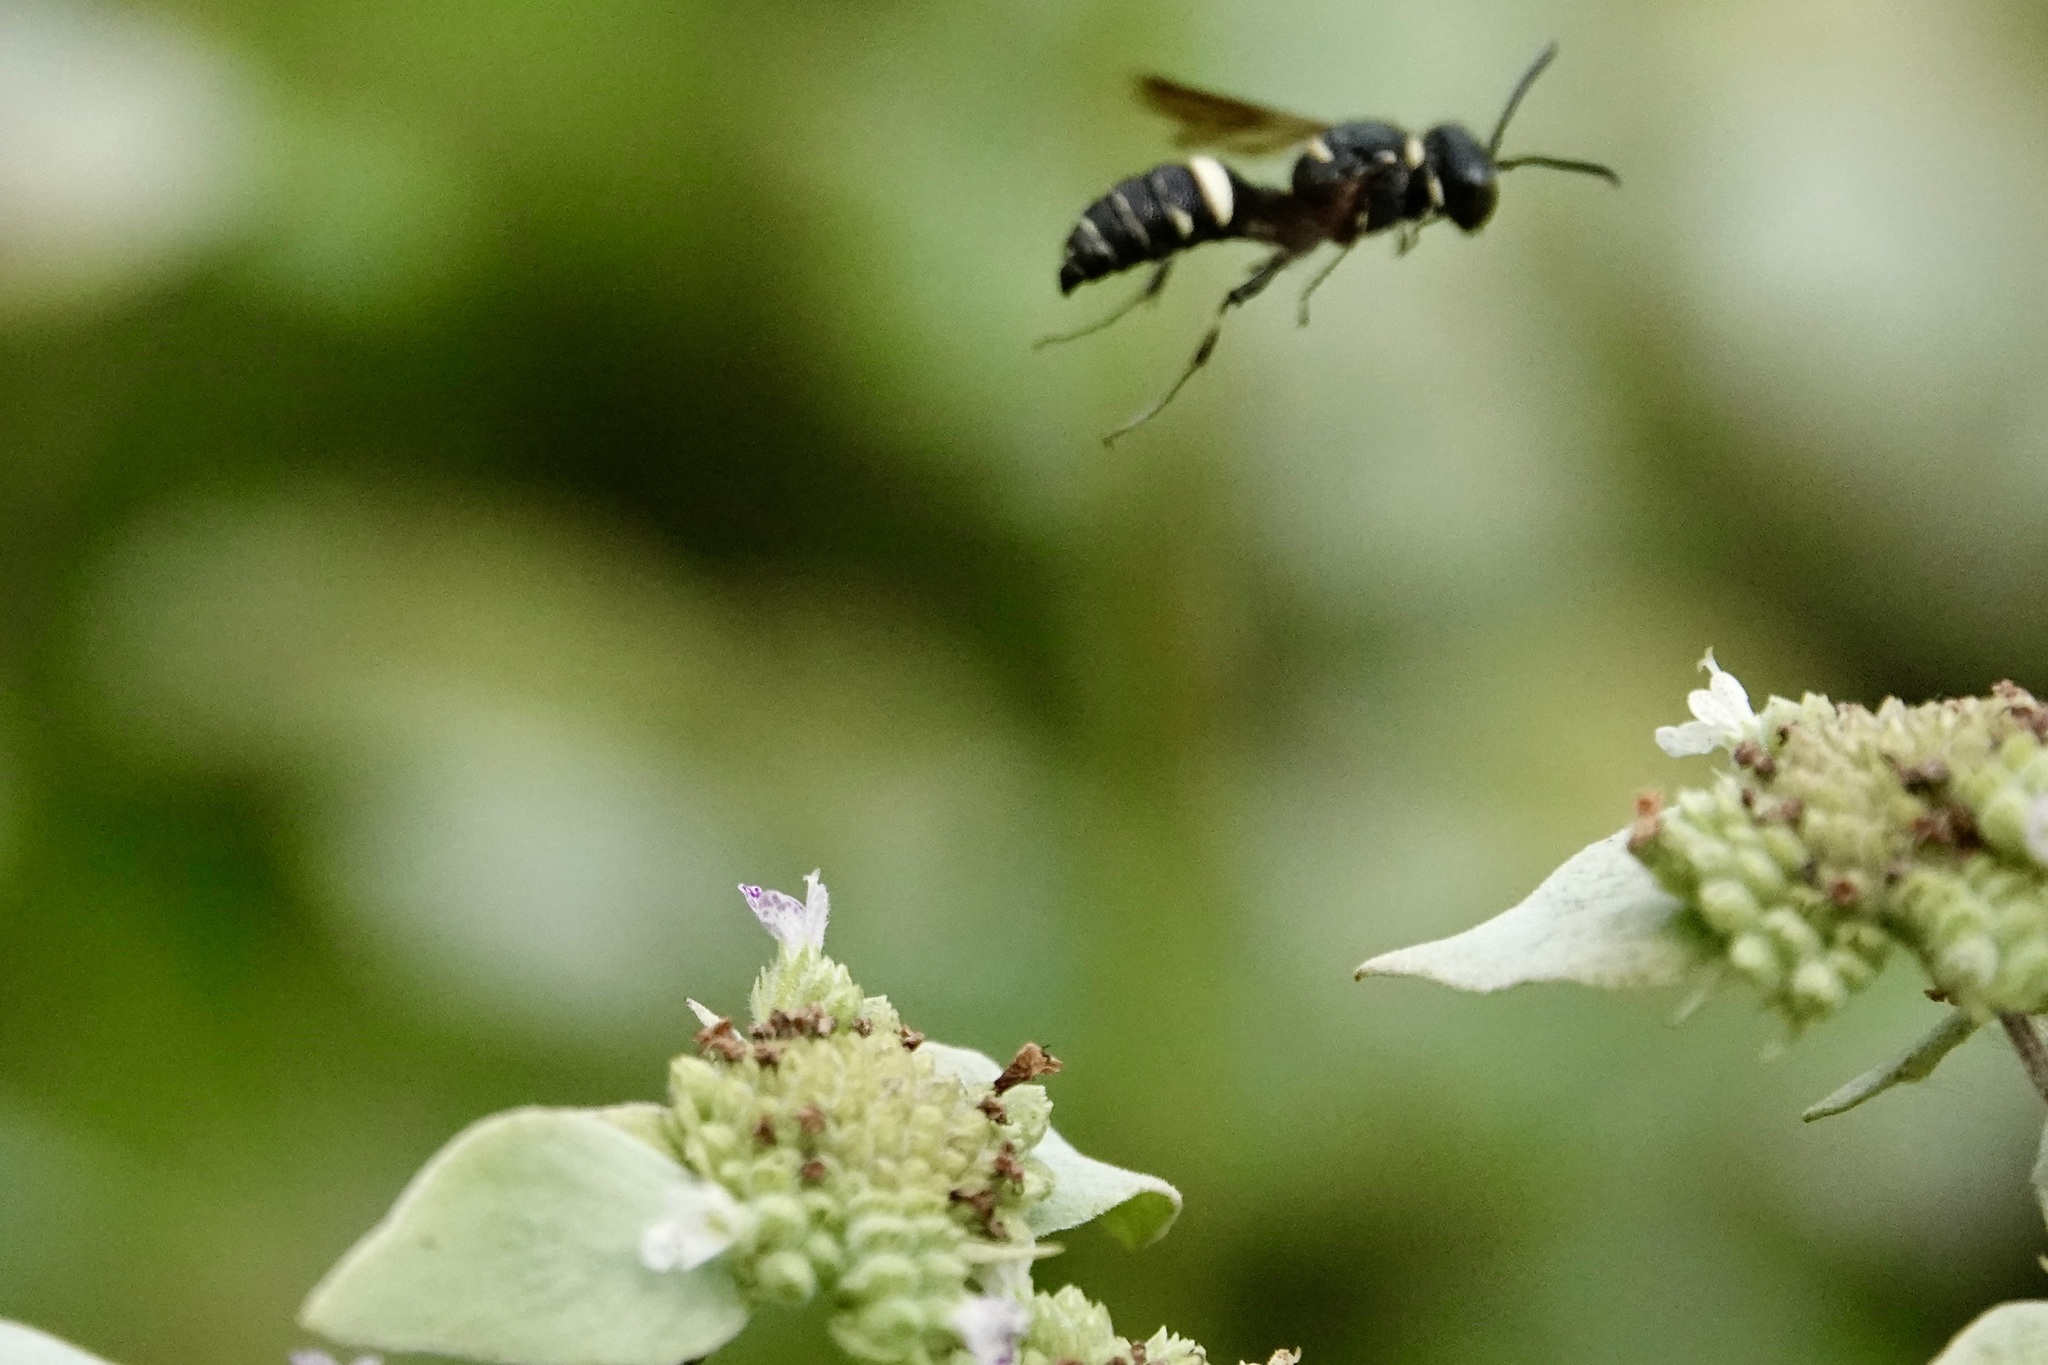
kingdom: Animalia
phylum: Arthropoda
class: Insecta
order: Hymenoptera
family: Crabronidae
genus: Cerceris
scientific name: Cerceris fumipennis
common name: Smokey-winged beetle bandit wasp
